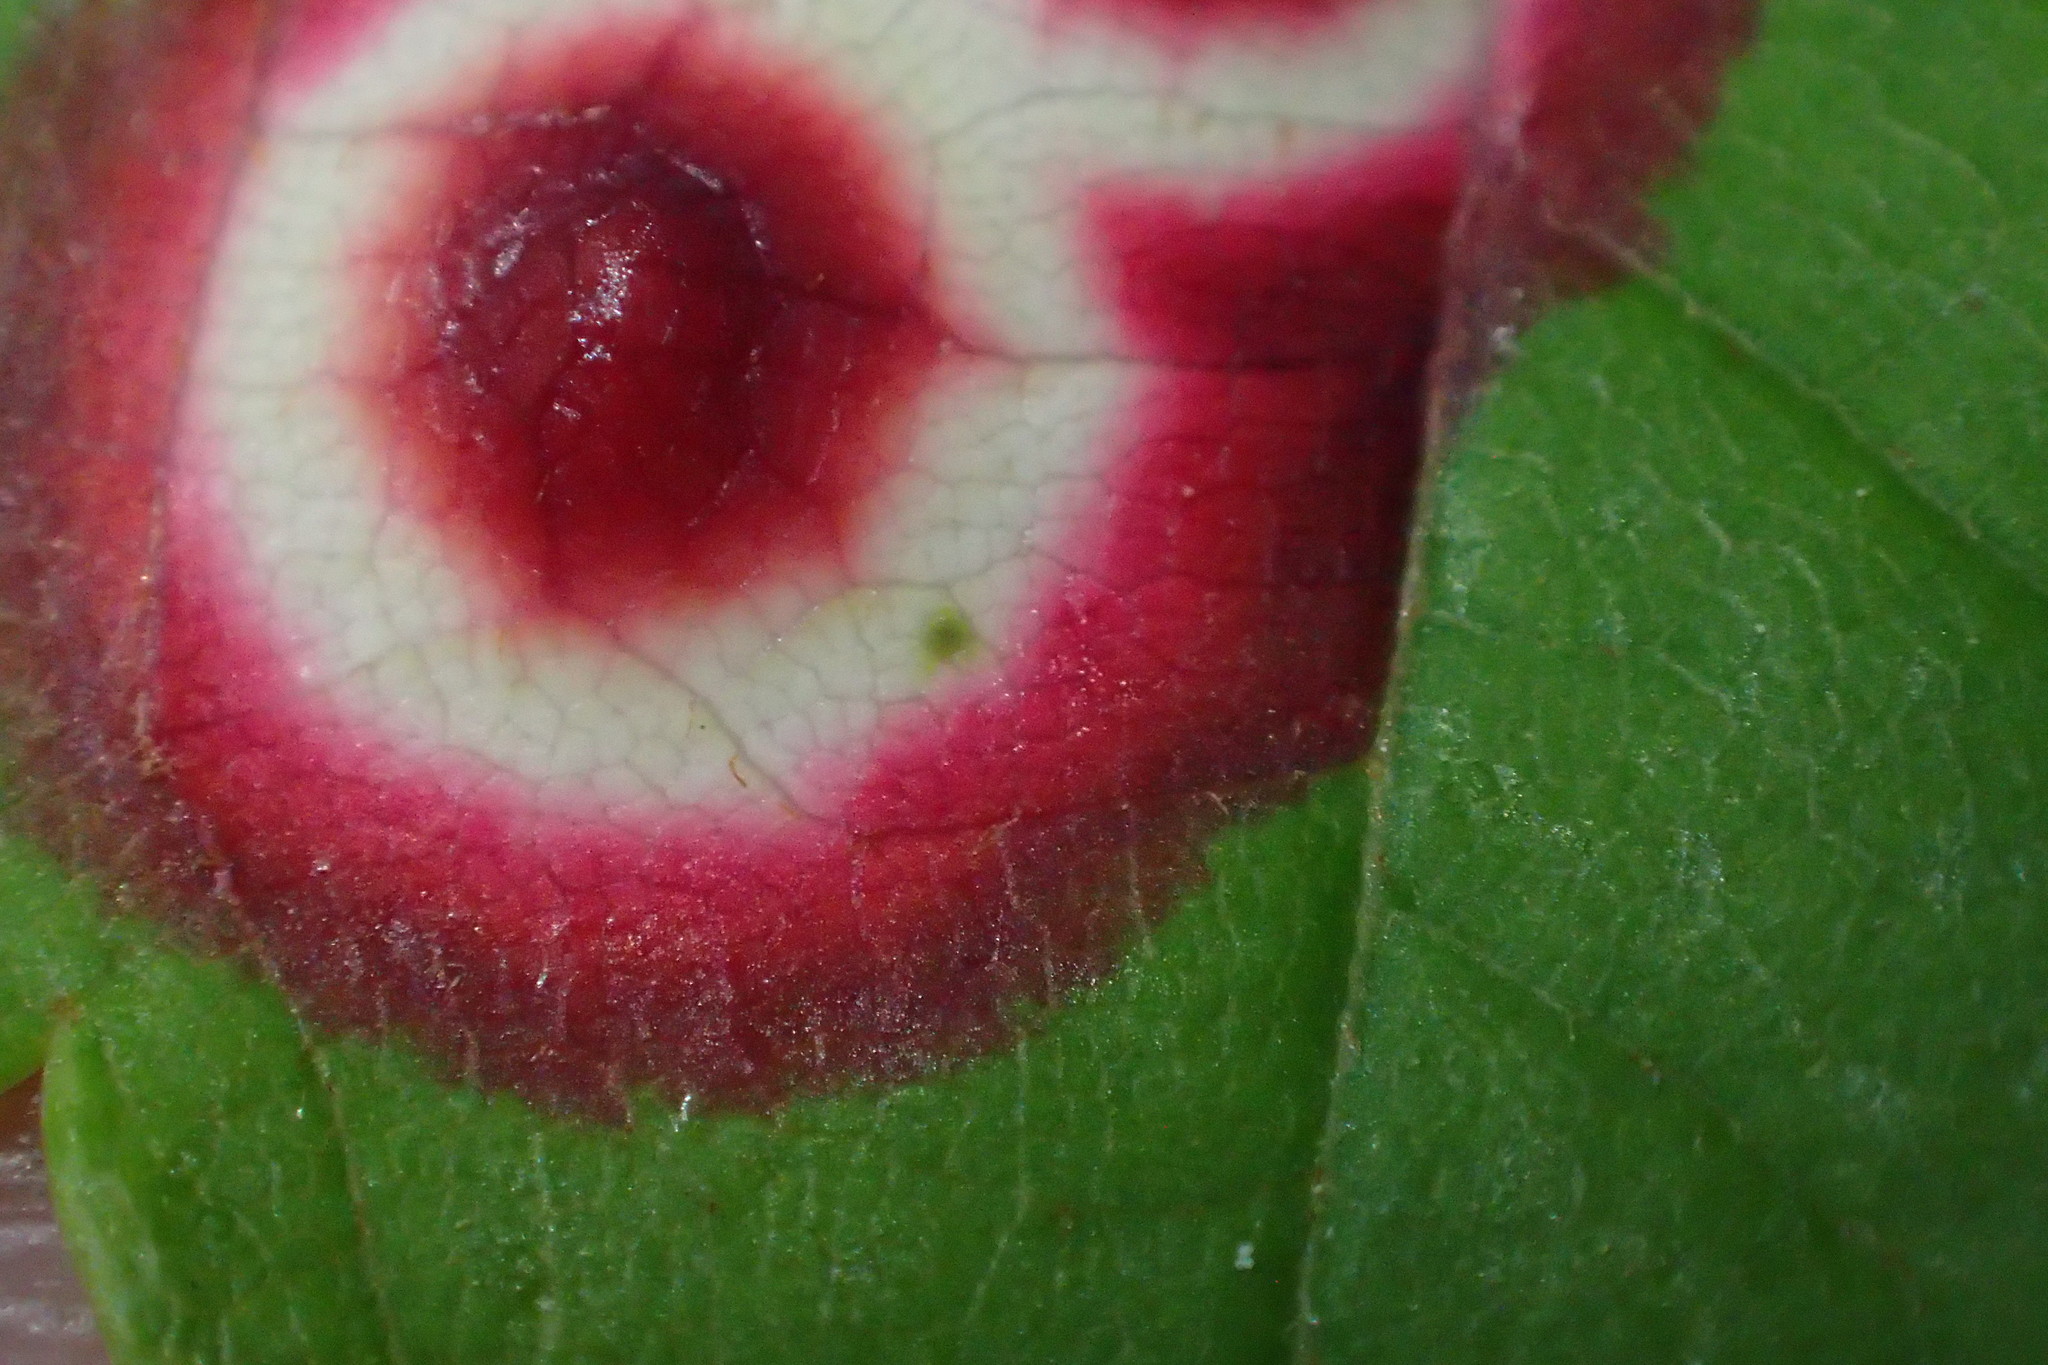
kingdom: Animalia
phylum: Arthropoda
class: Insecta
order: Diptera
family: Cecidomyiidae
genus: Acericecis
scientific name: Acericecis ocellaris
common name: Ocellate gall midge
